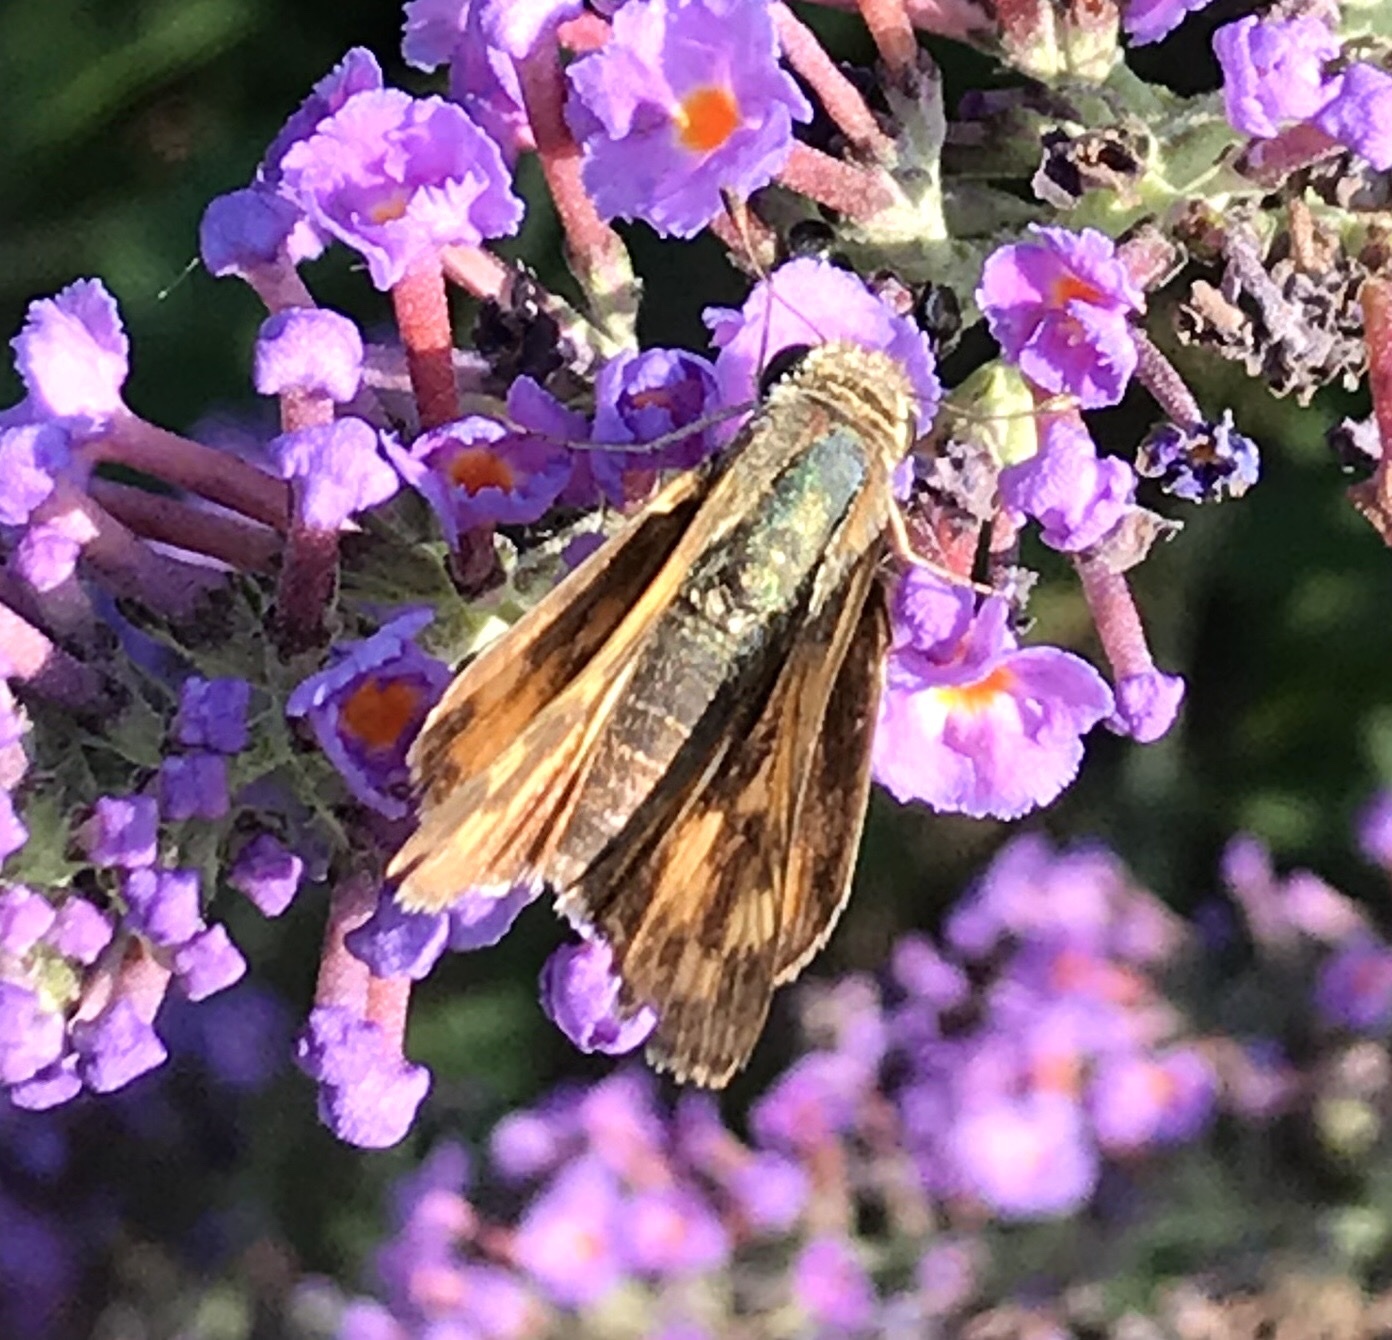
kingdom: Animalia
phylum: Arthropoda
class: Insecta
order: Lepidoptera
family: Hesperiidae
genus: Hylephila
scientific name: Hylephila phyleus
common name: Fiery skipper
